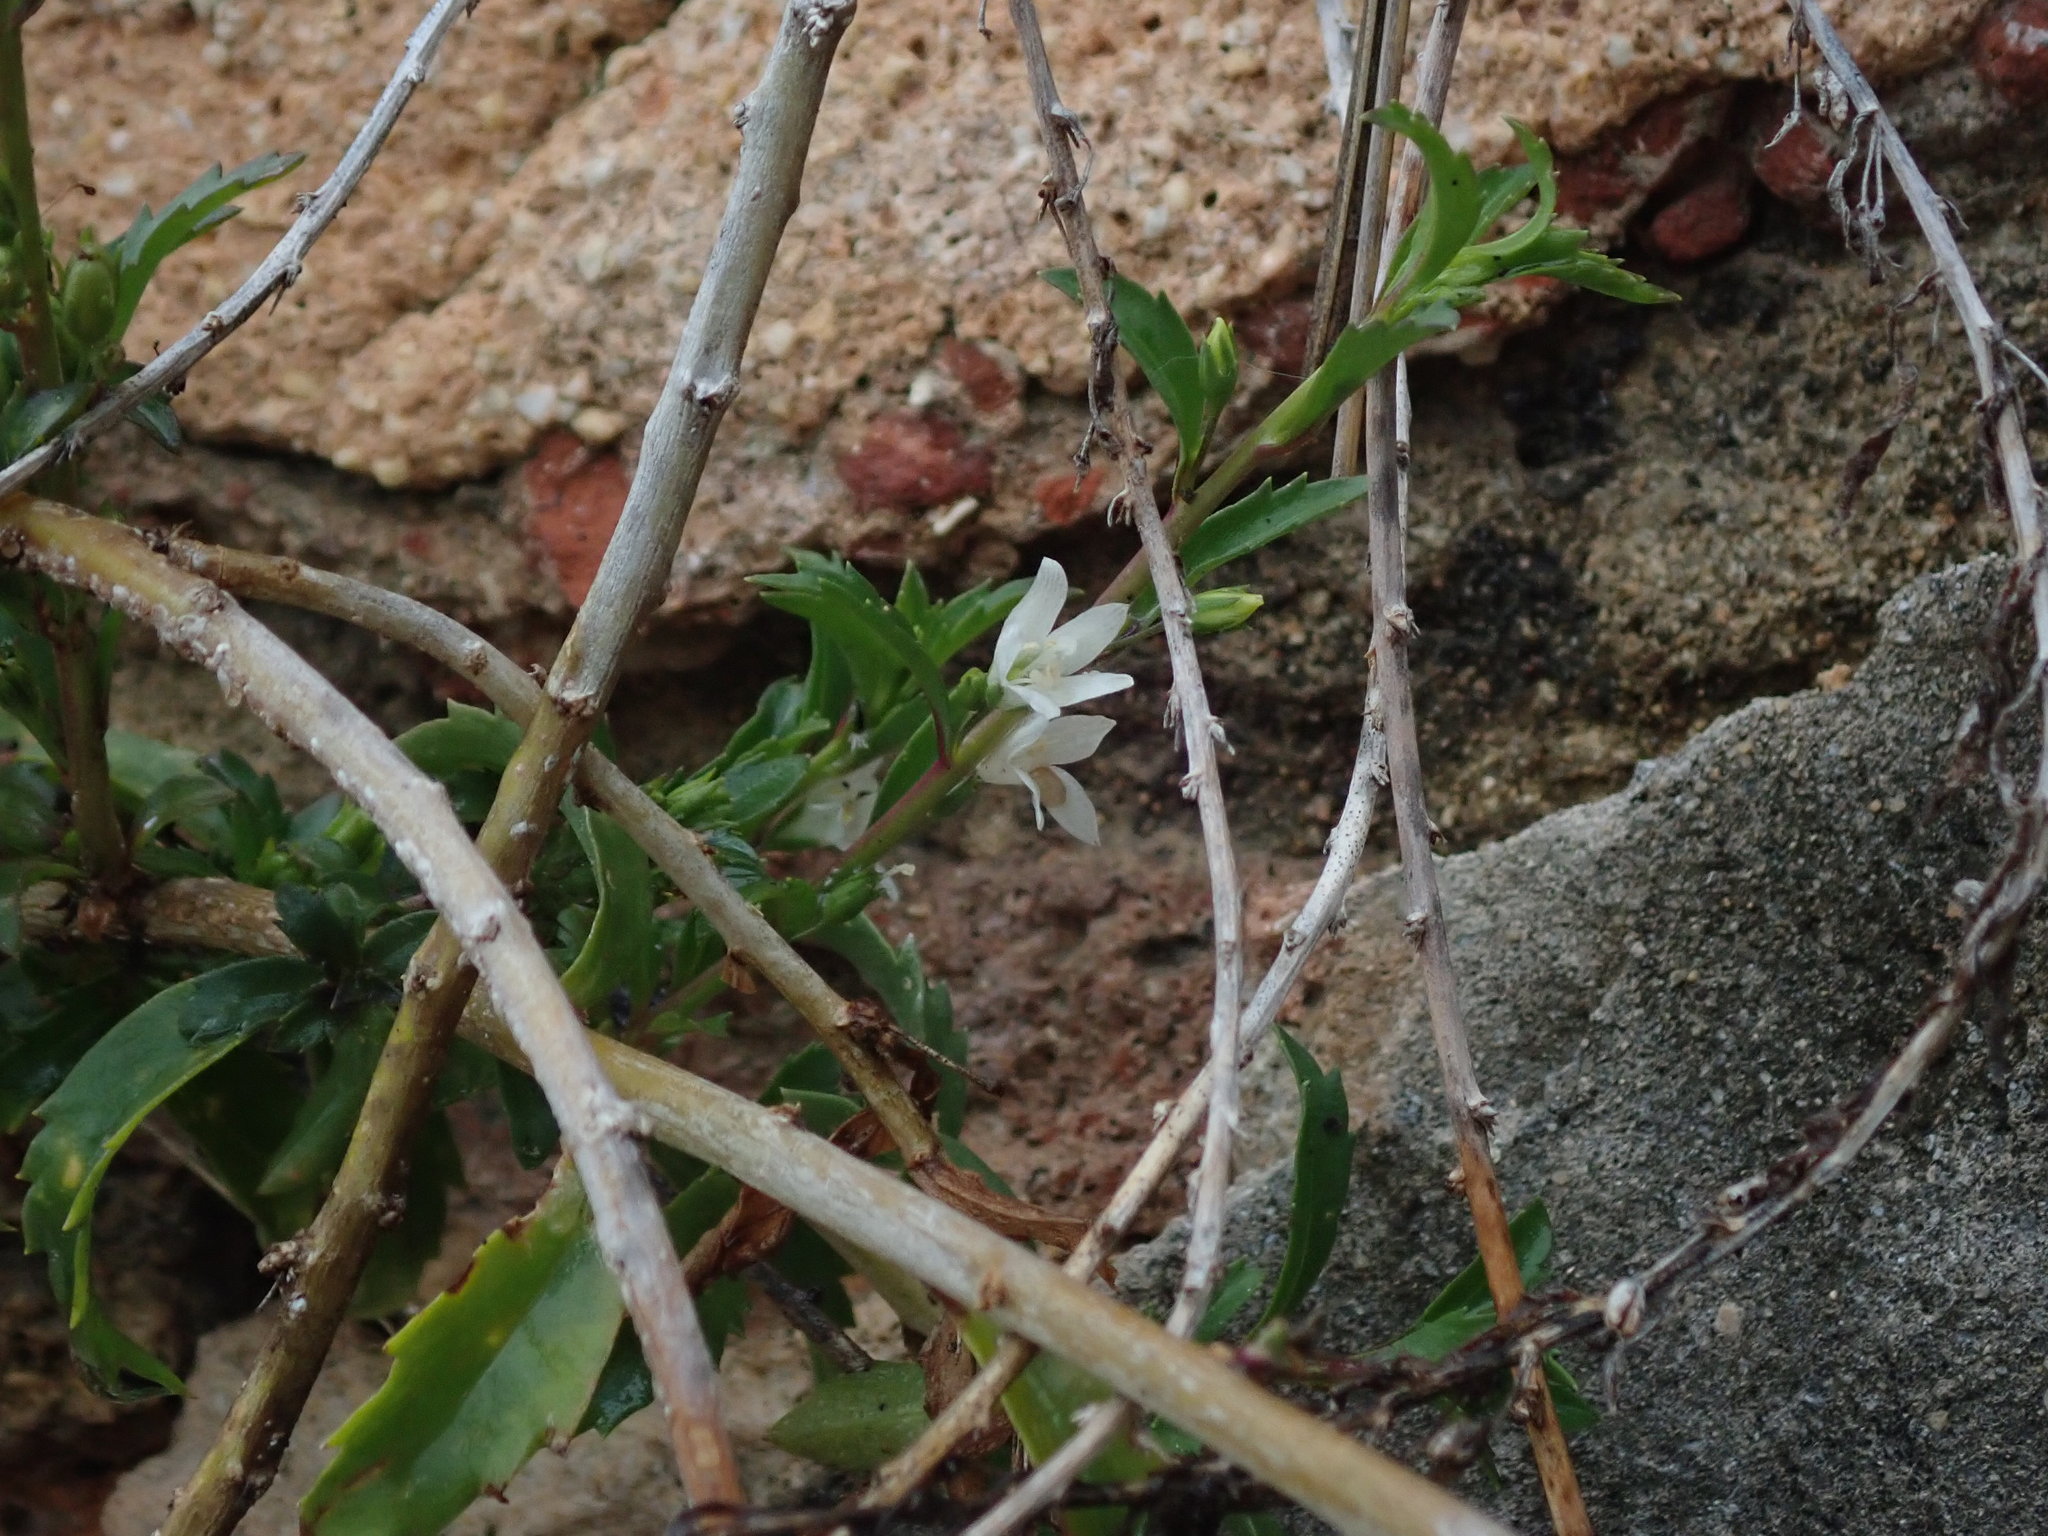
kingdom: Plantae
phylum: Tracheophyta
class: Magnoliopsida
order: Lamiales
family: Scrophulariaceae
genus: Capraria
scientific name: Capraria biflora
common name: Goatweed
